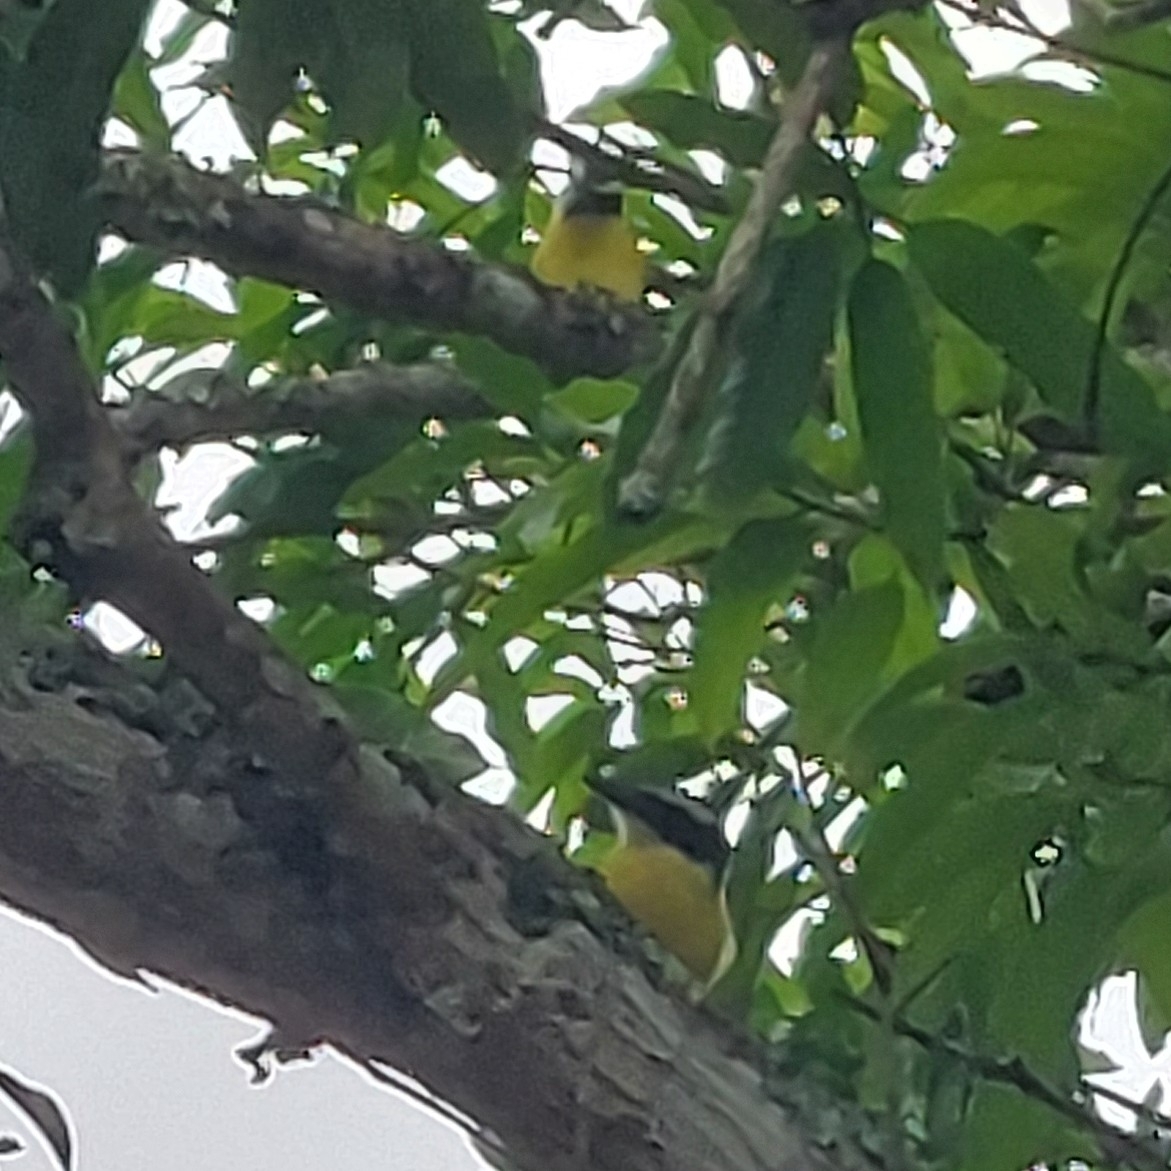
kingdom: Animalia
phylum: Chordata
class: Aves
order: Passeriformes
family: Tyrannidae
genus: Megarynchus
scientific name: Megarynchus pitangua
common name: Boat-billed flycatcher
